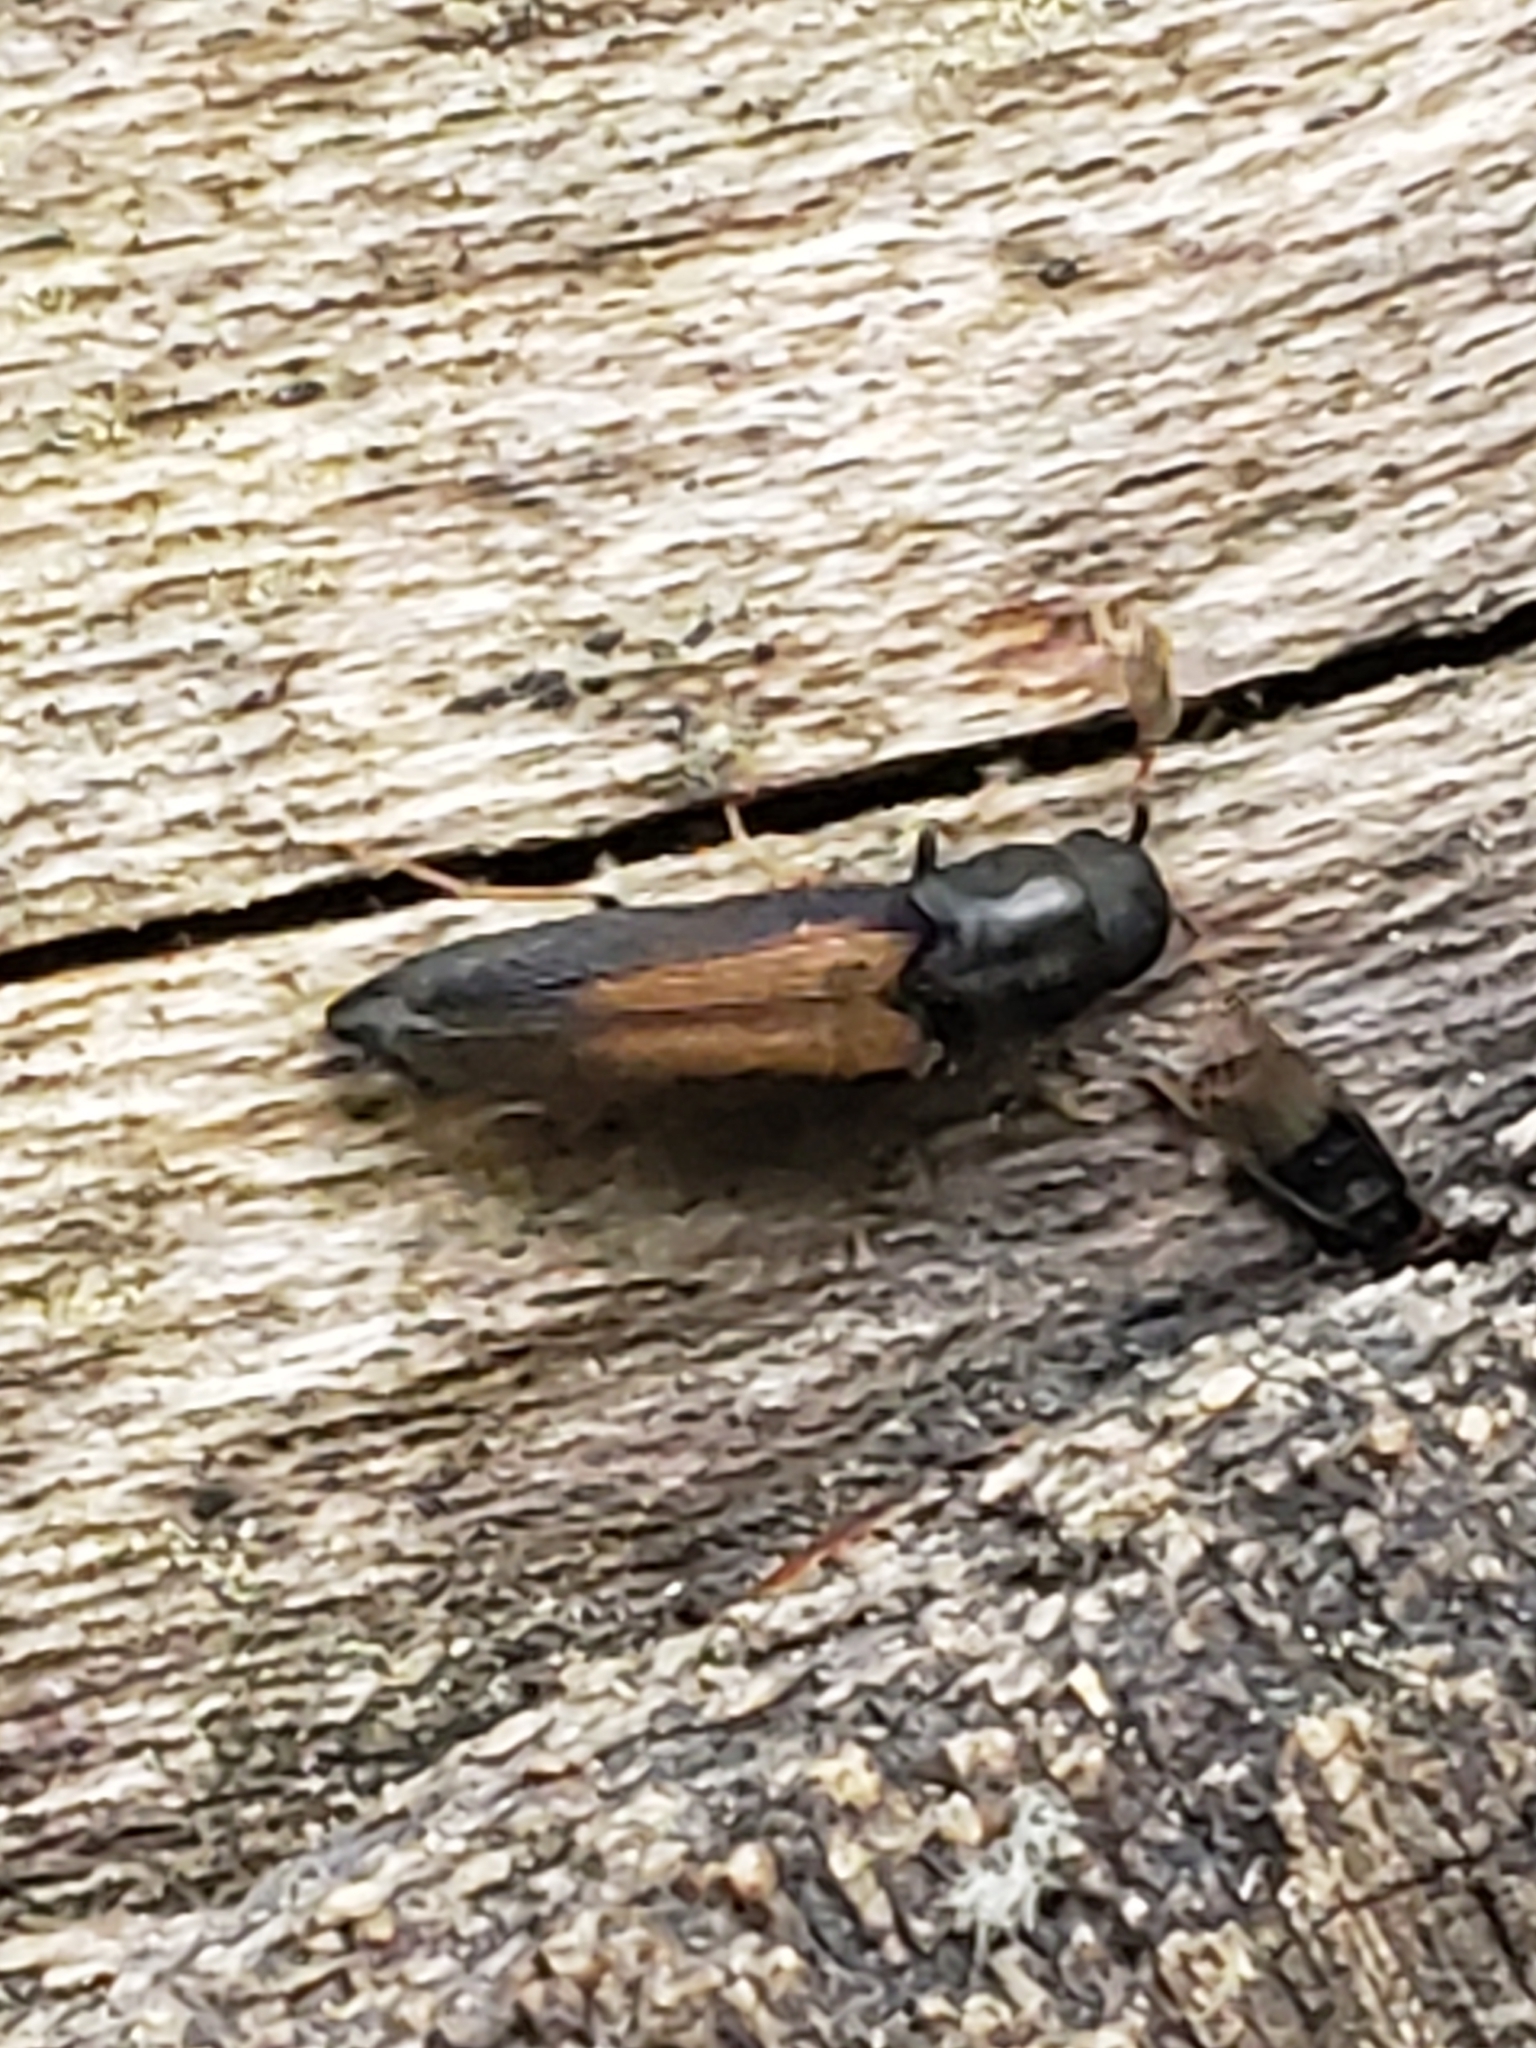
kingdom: Animalia
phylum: Arthropoda
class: Insecta
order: Coleoptera
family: Eucnemidae
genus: Isorhipis
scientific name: Isorhipis obliqua
